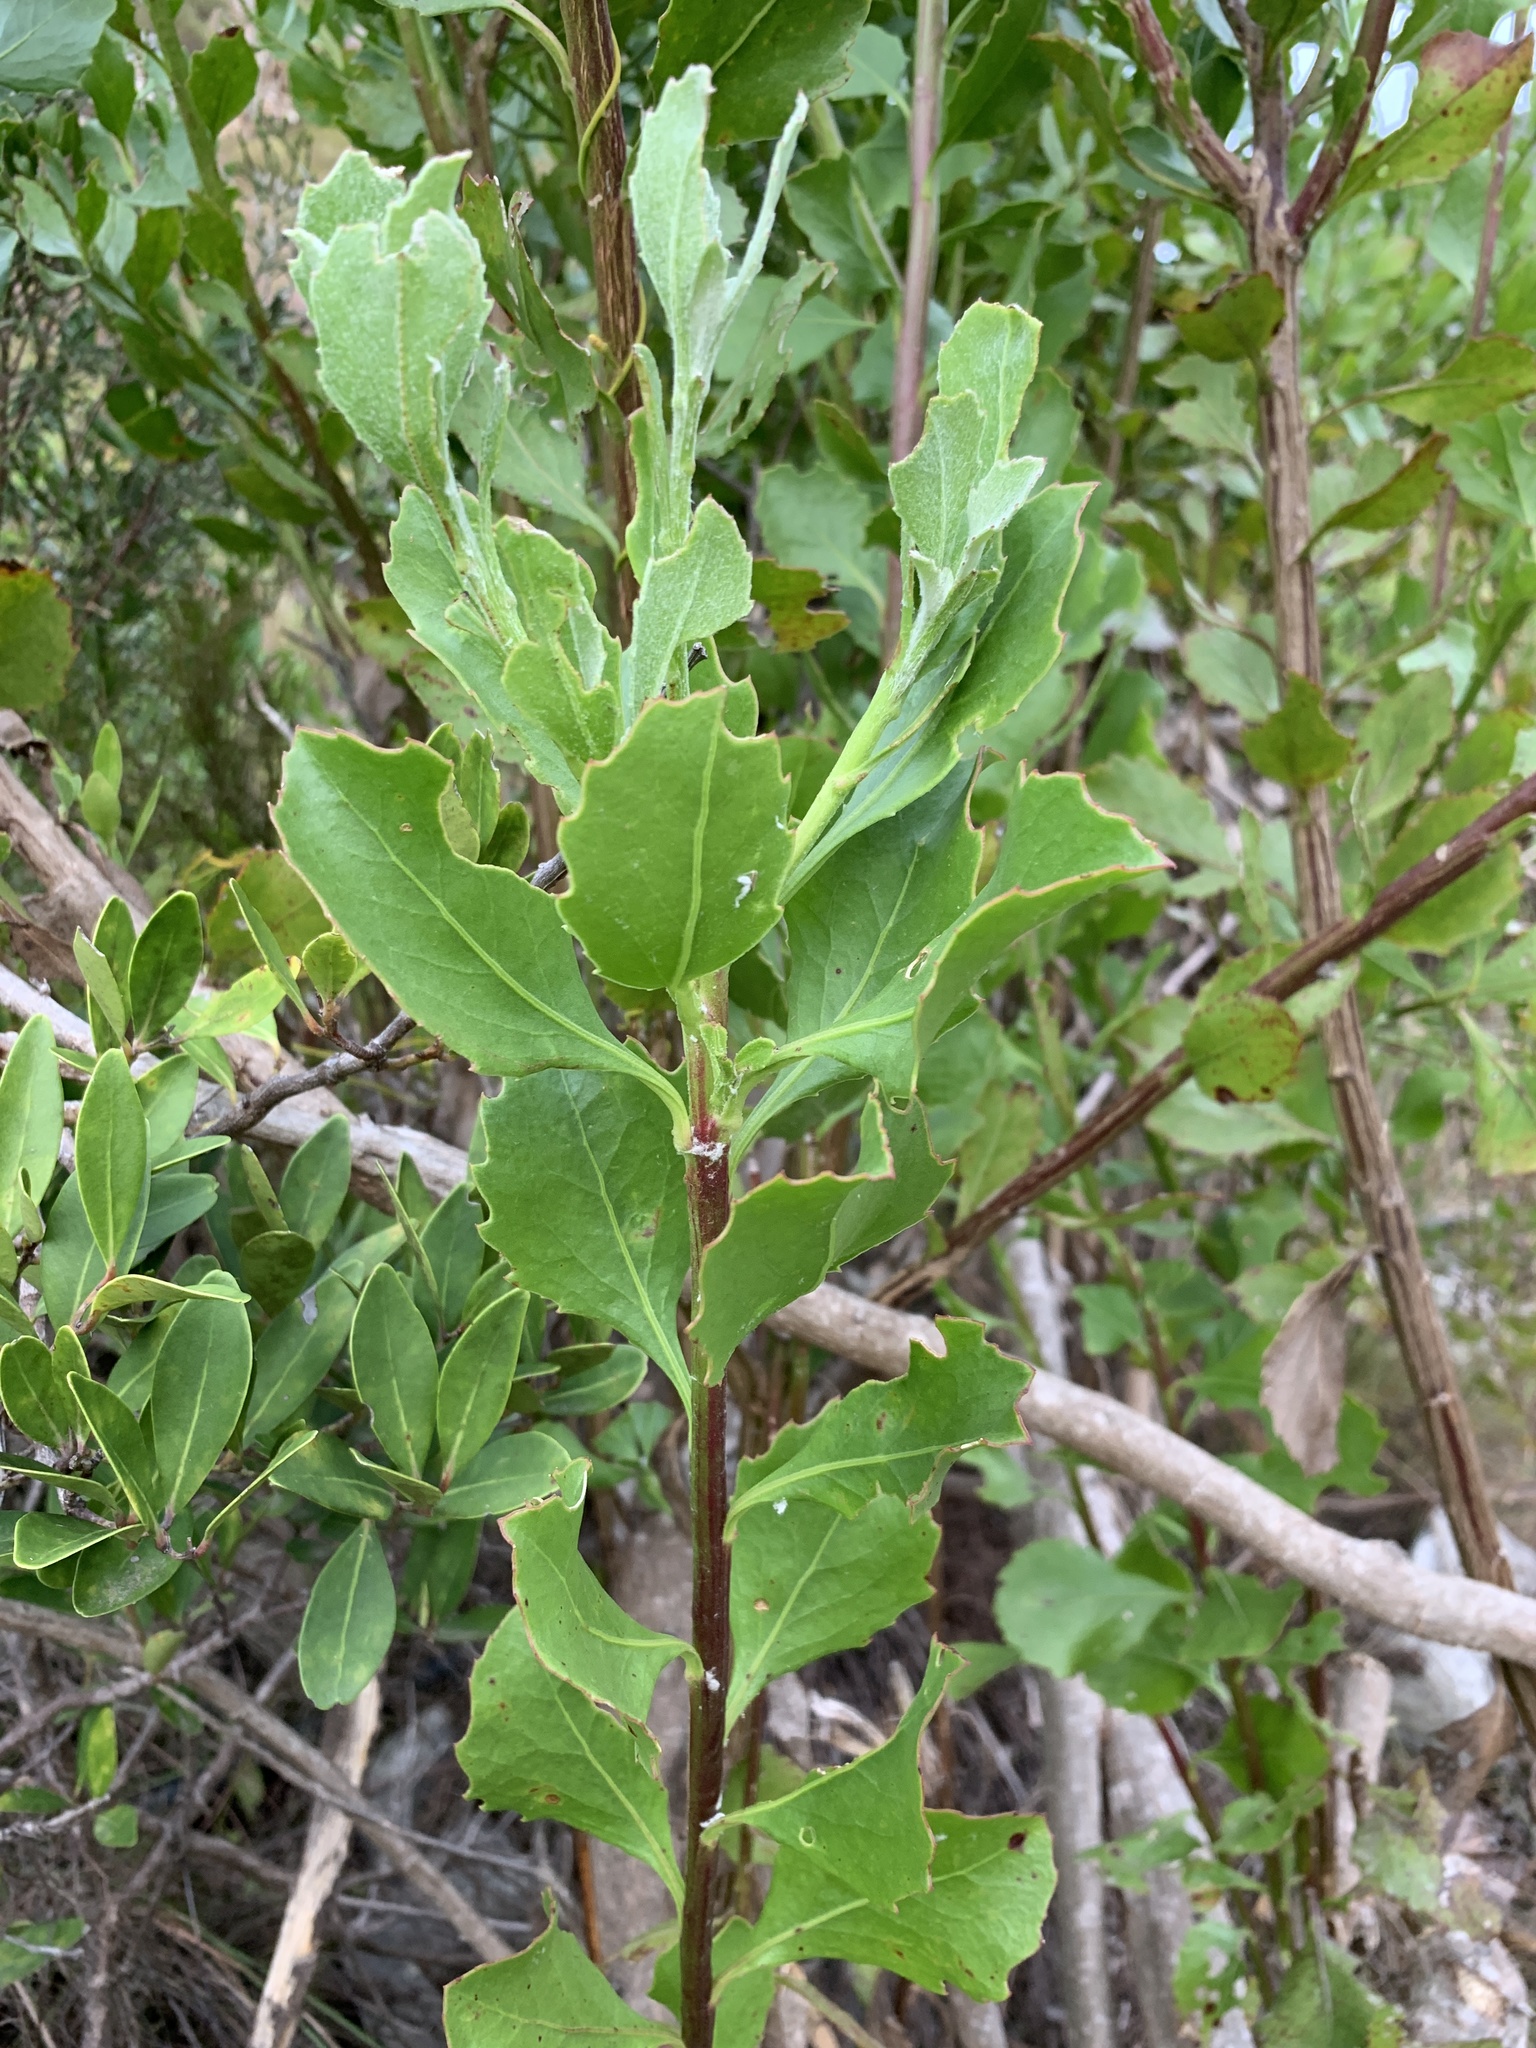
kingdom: Plantae
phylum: Tracheophyta
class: Magnoliopsida
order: Asterales
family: Asteraceae
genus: Osteospermum
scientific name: Osteospermum moniliferum
